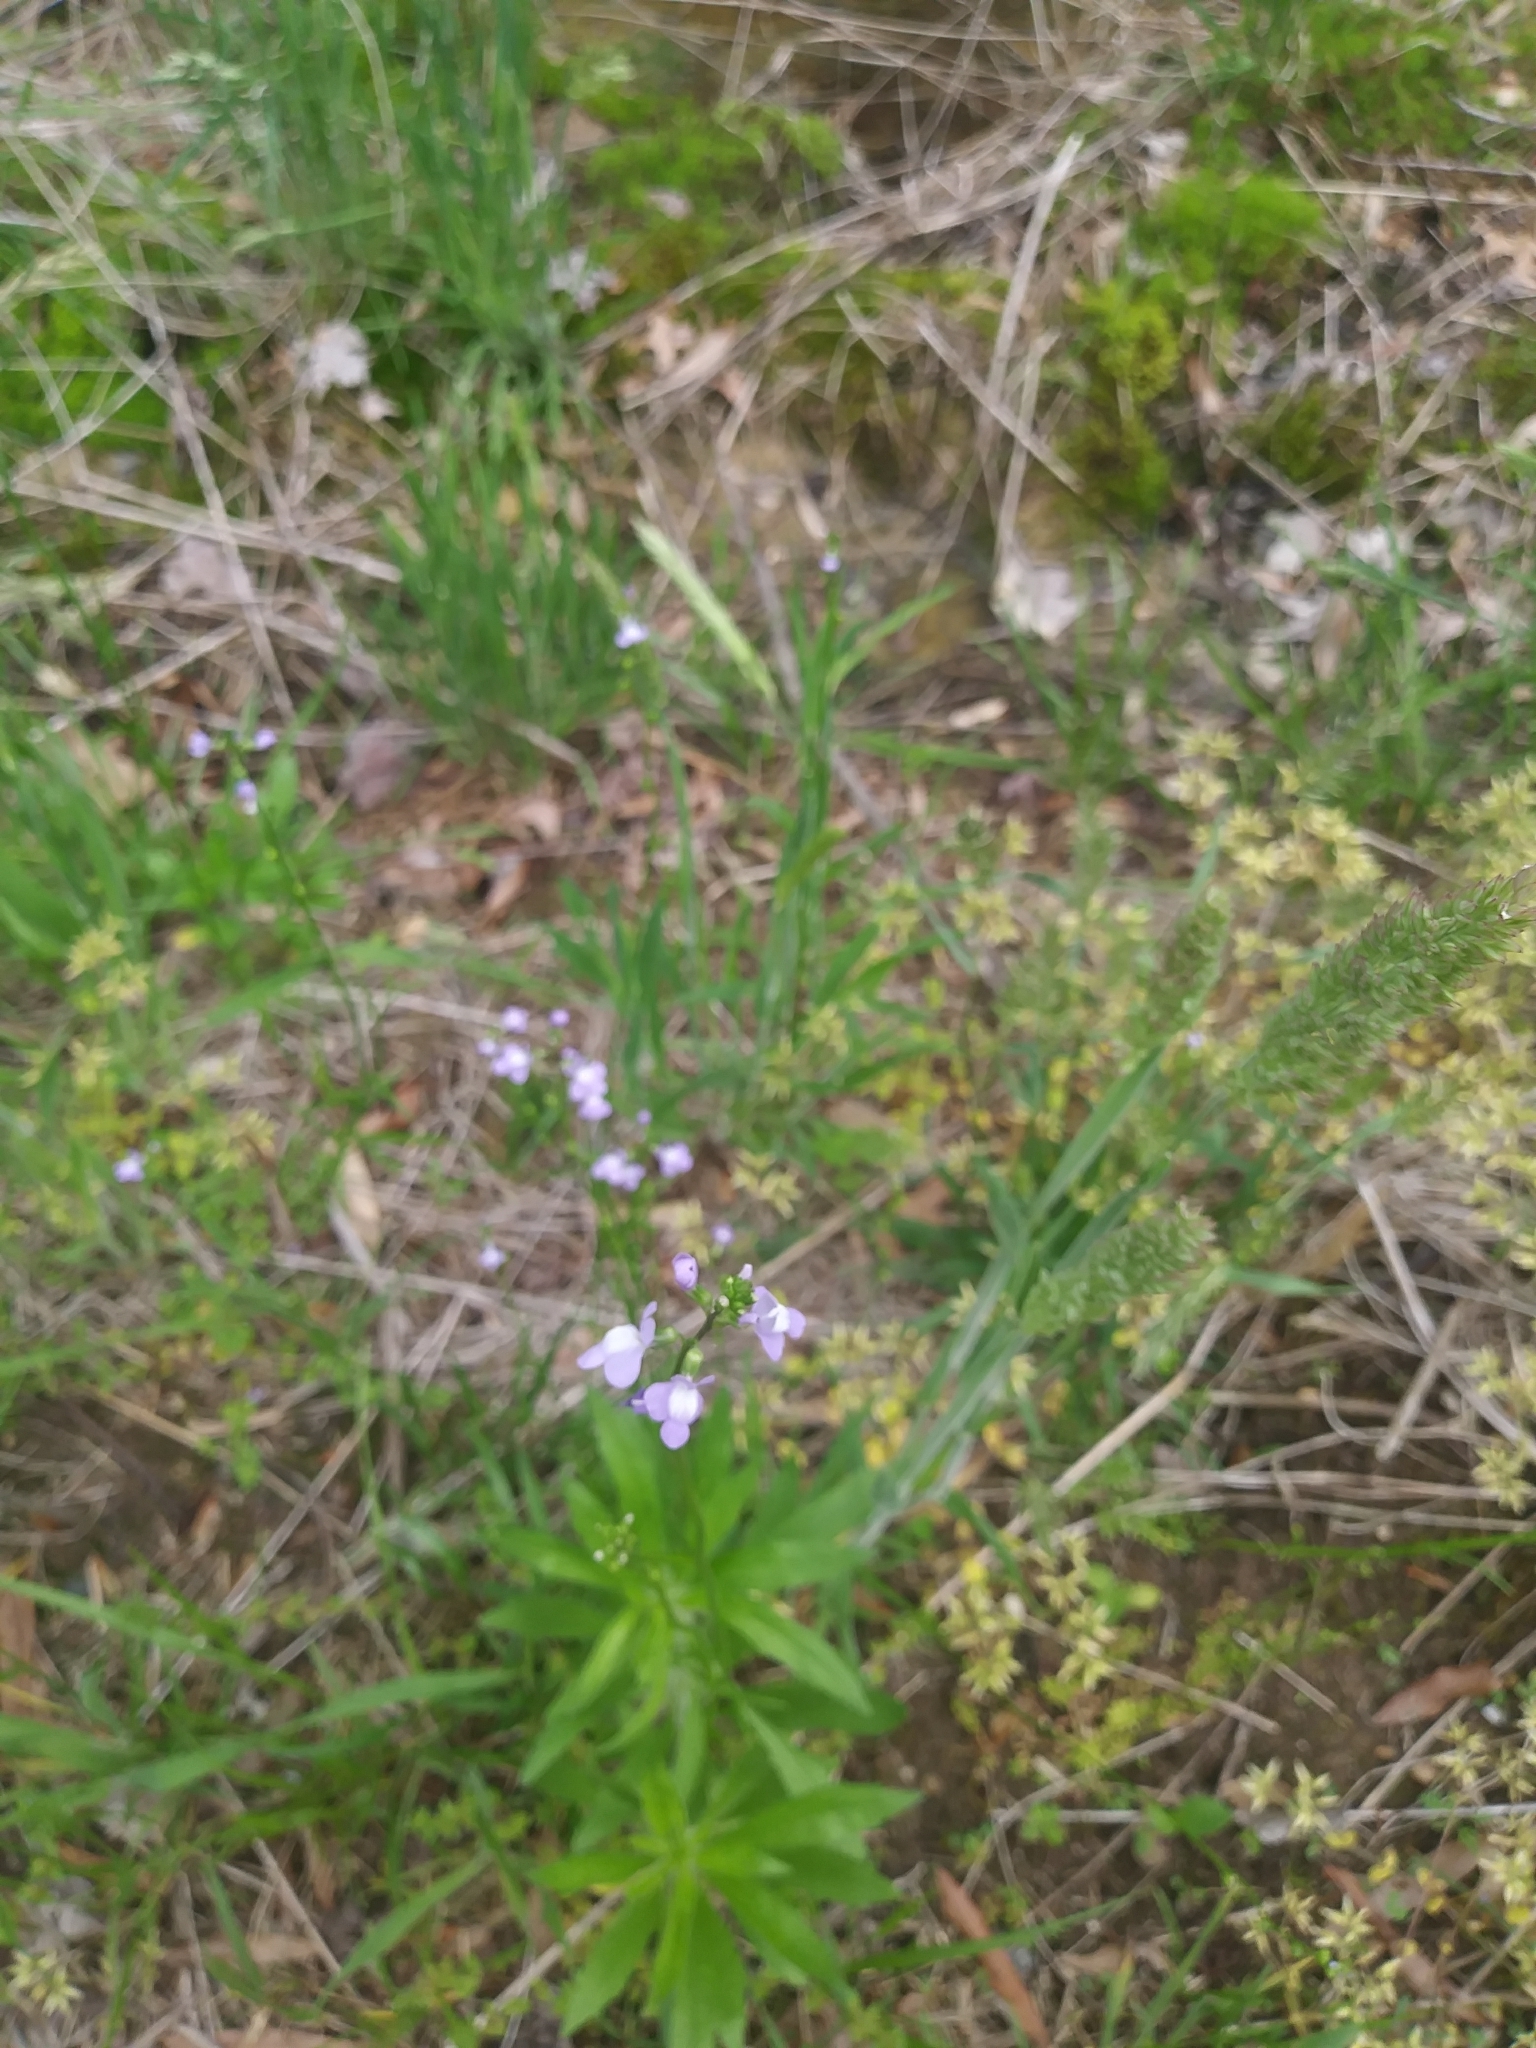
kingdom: Plantae
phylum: Tracheophyta
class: Magnoliopsida
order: Lamiales
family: Plantaginaceae
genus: Nuttallanthus
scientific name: Nuttallanthus canadensis
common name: Blue toadflax
